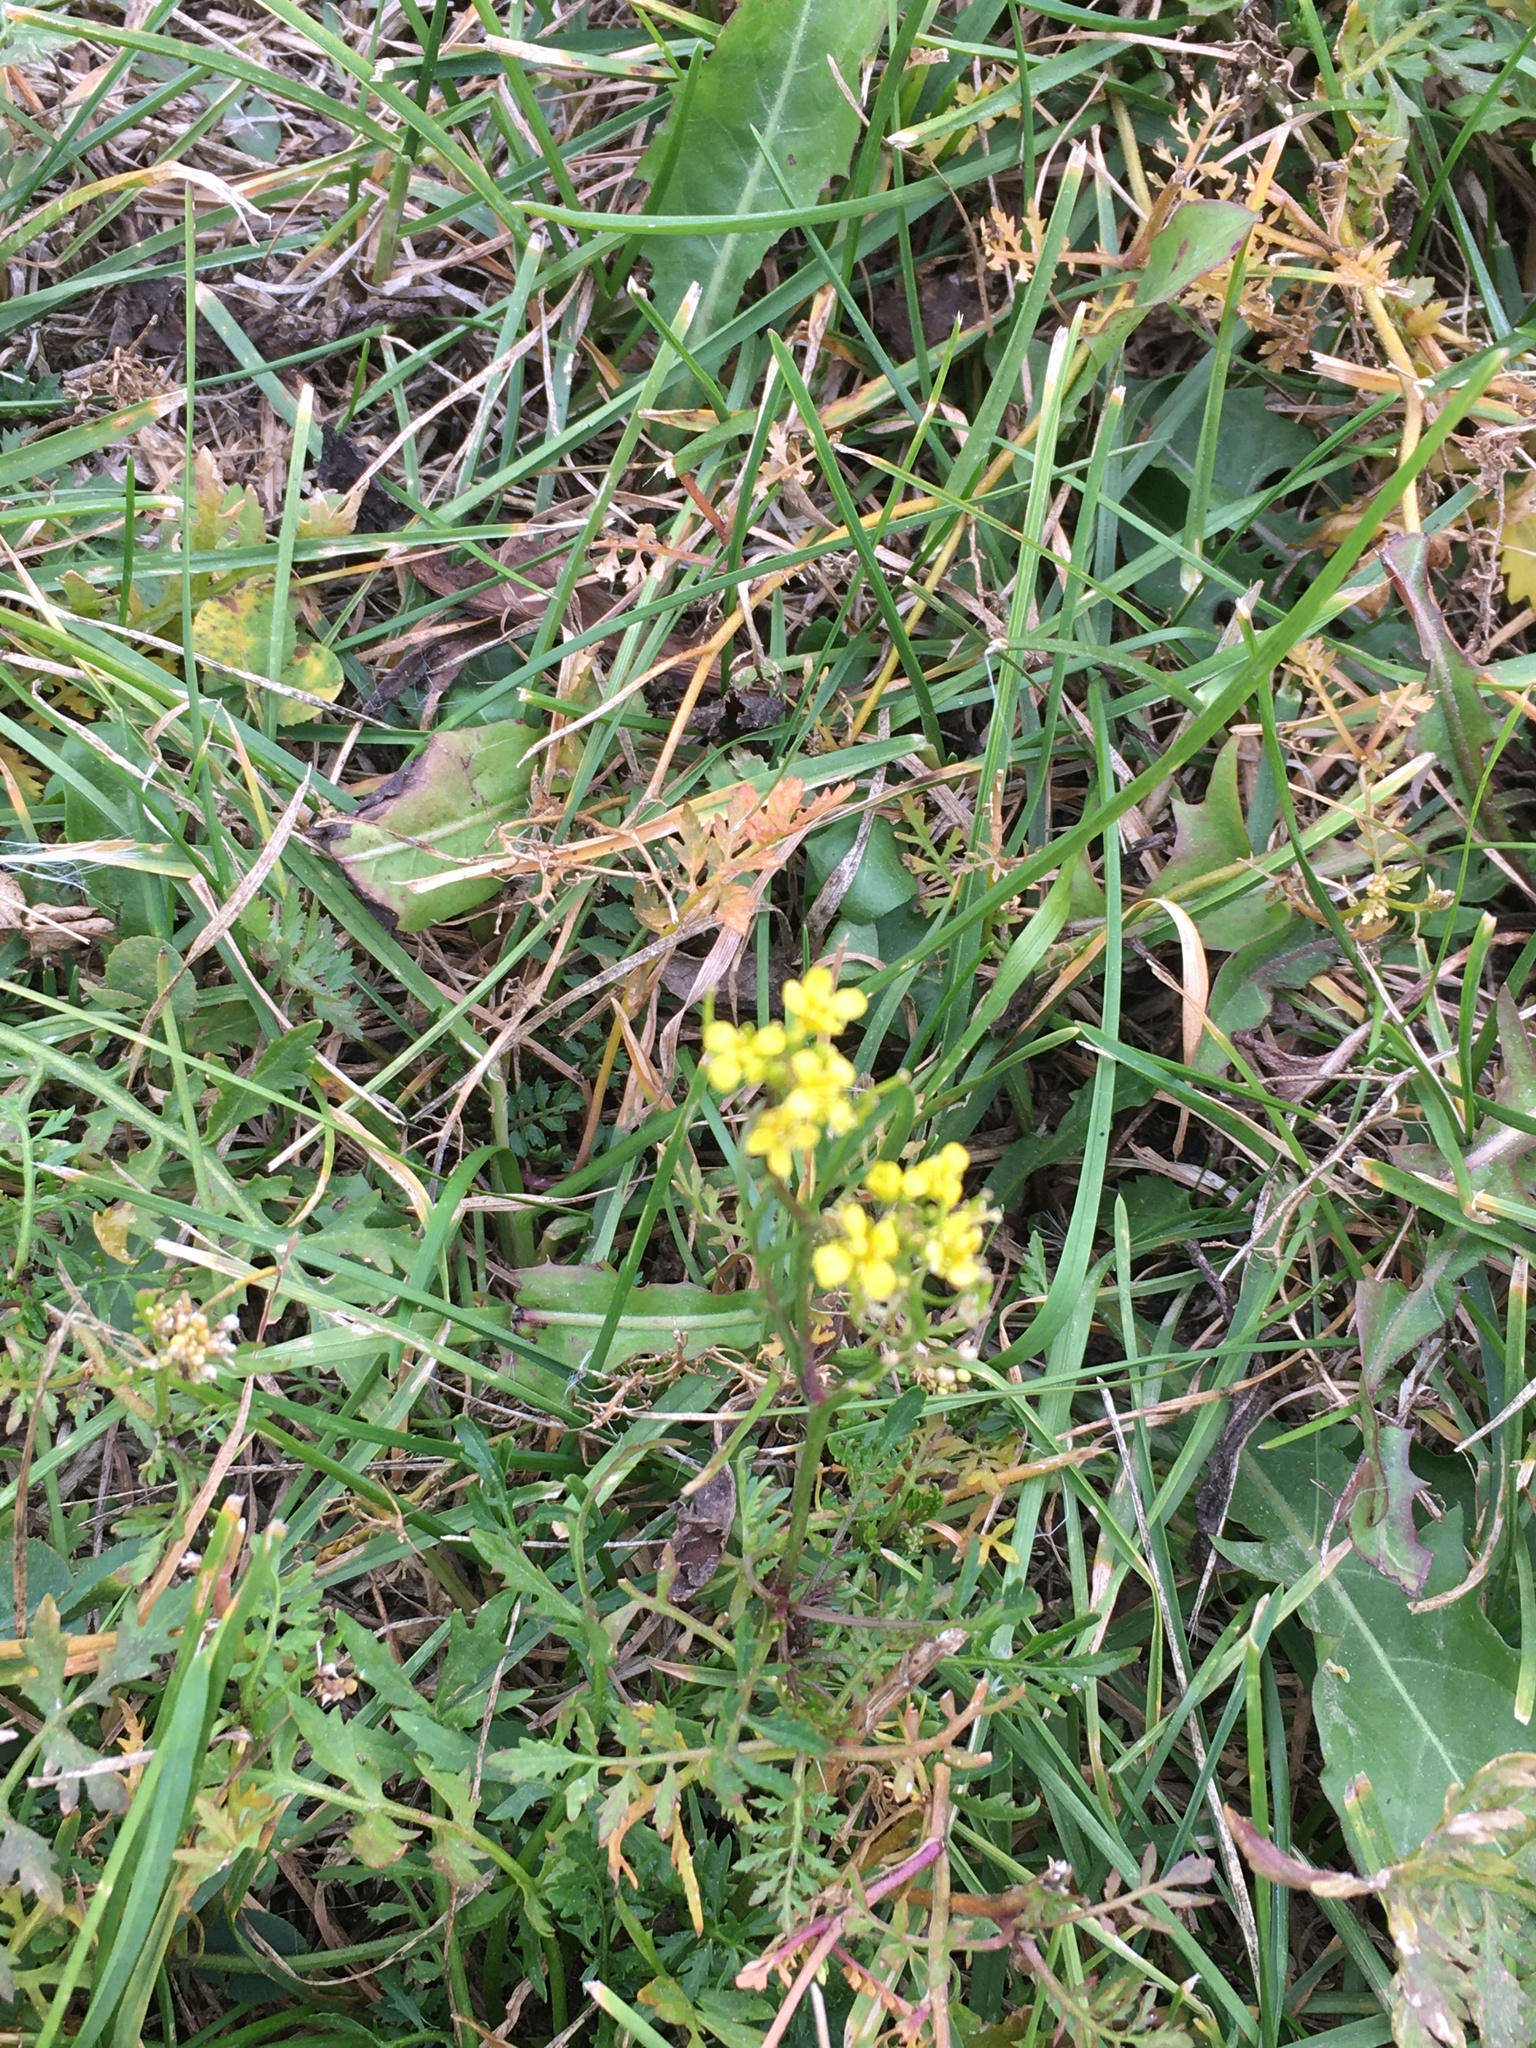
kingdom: Plantae
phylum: Tracheophyta
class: Magnoliopsida
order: Brassicales
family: Brassicaceae
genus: Rorippa
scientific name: Rorippa sylvestris
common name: Creeping yellowcress
